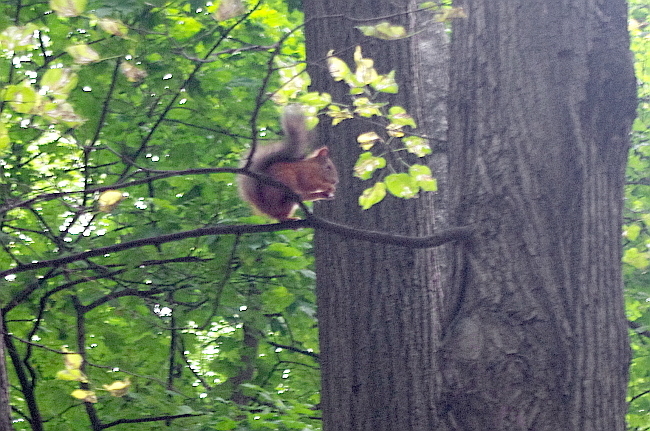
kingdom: Animalia
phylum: Chordata
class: Mammalia
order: Rodentia
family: Sciuridae
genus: Sciurus
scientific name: Sciurus vulgaris
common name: Eurasian red squirrel
